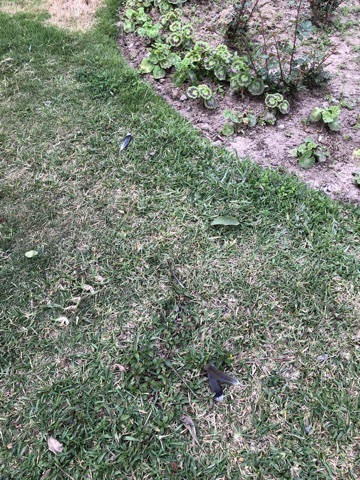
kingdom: Animalia
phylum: Chordata
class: Aves
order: Columbiformes
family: Columbidae
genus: Zenaida
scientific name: Zenaida meloda
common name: West peruvian dove
